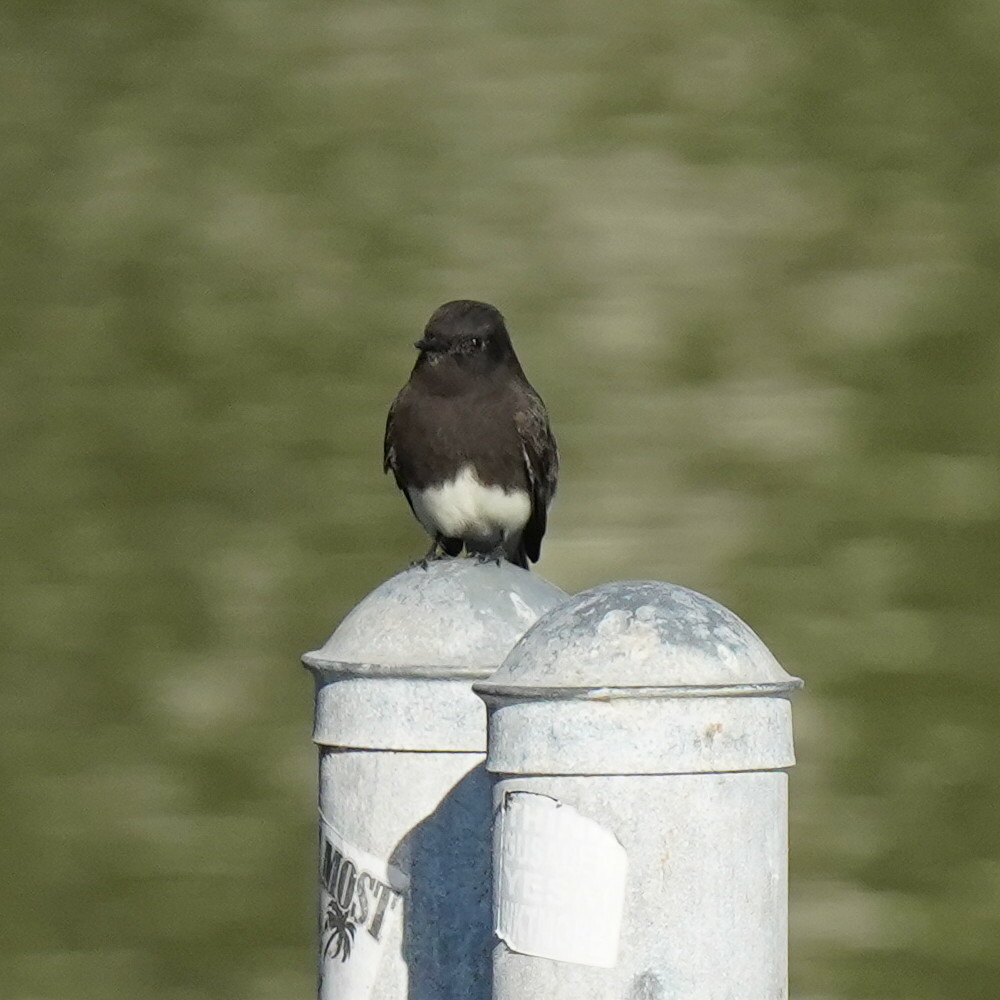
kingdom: Animalia
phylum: Chordata
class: Aves
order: Passeriformes
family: Tyrannidae
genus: Sayornis
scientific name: Sayornis nigricans
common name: Black phoebe
